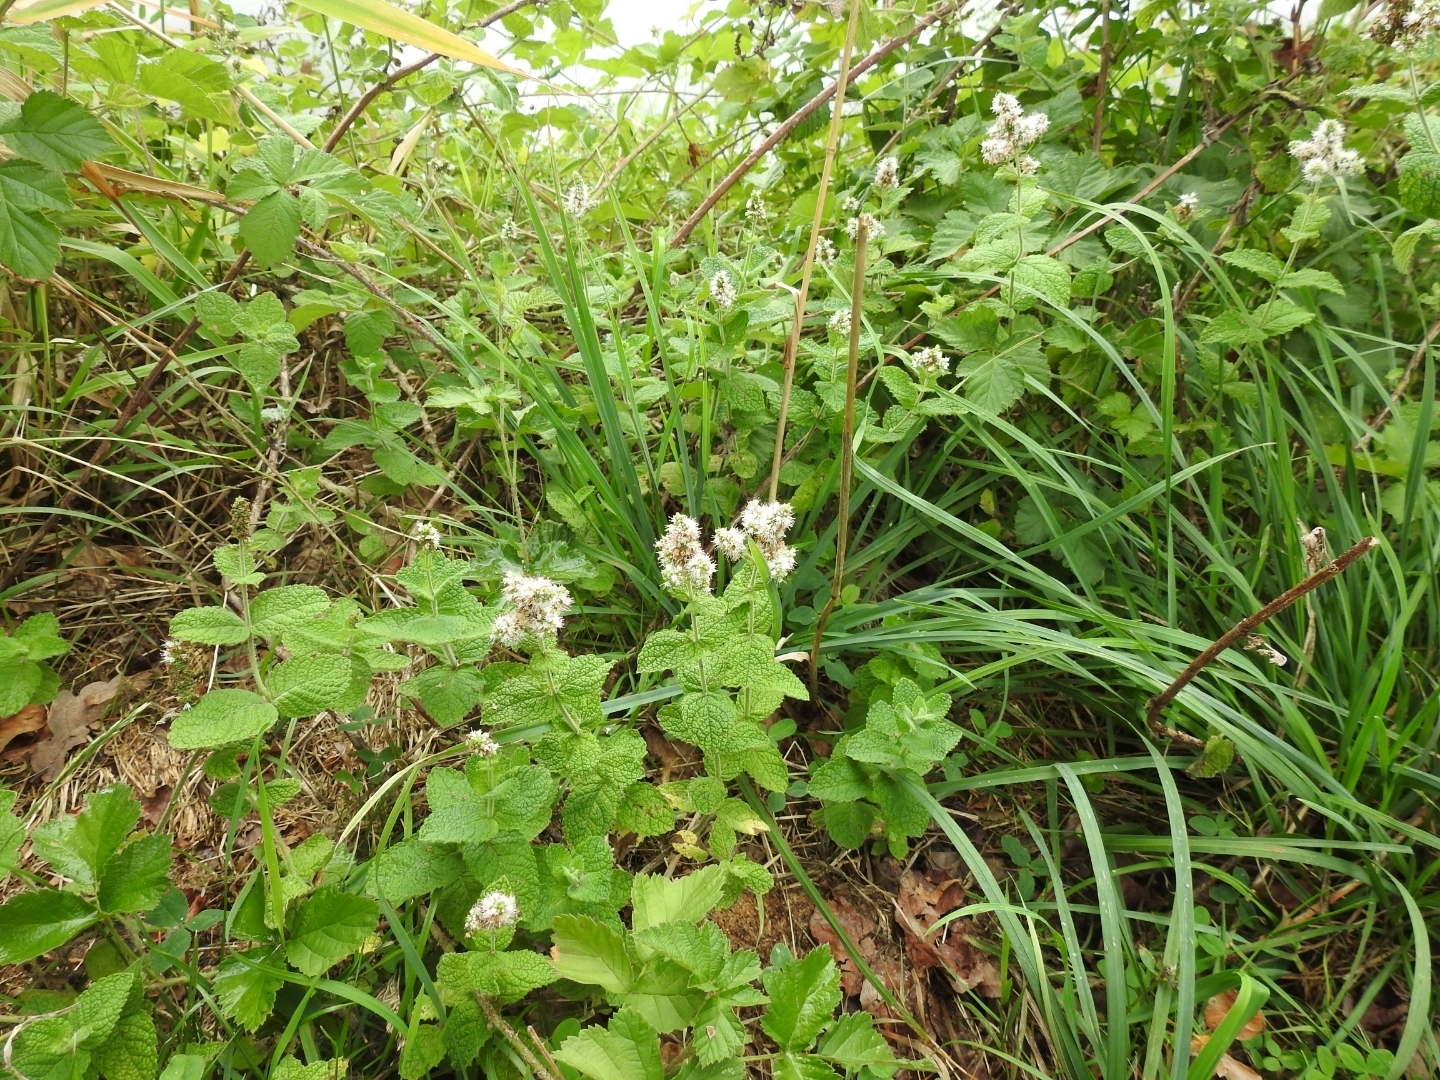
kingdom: Plantae
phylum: Tracheophyta
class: Magnoliopsida
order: Lamiales
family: Lamiaceae
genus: Mentha
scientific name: Mentha suaveolens
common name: Apple mint
